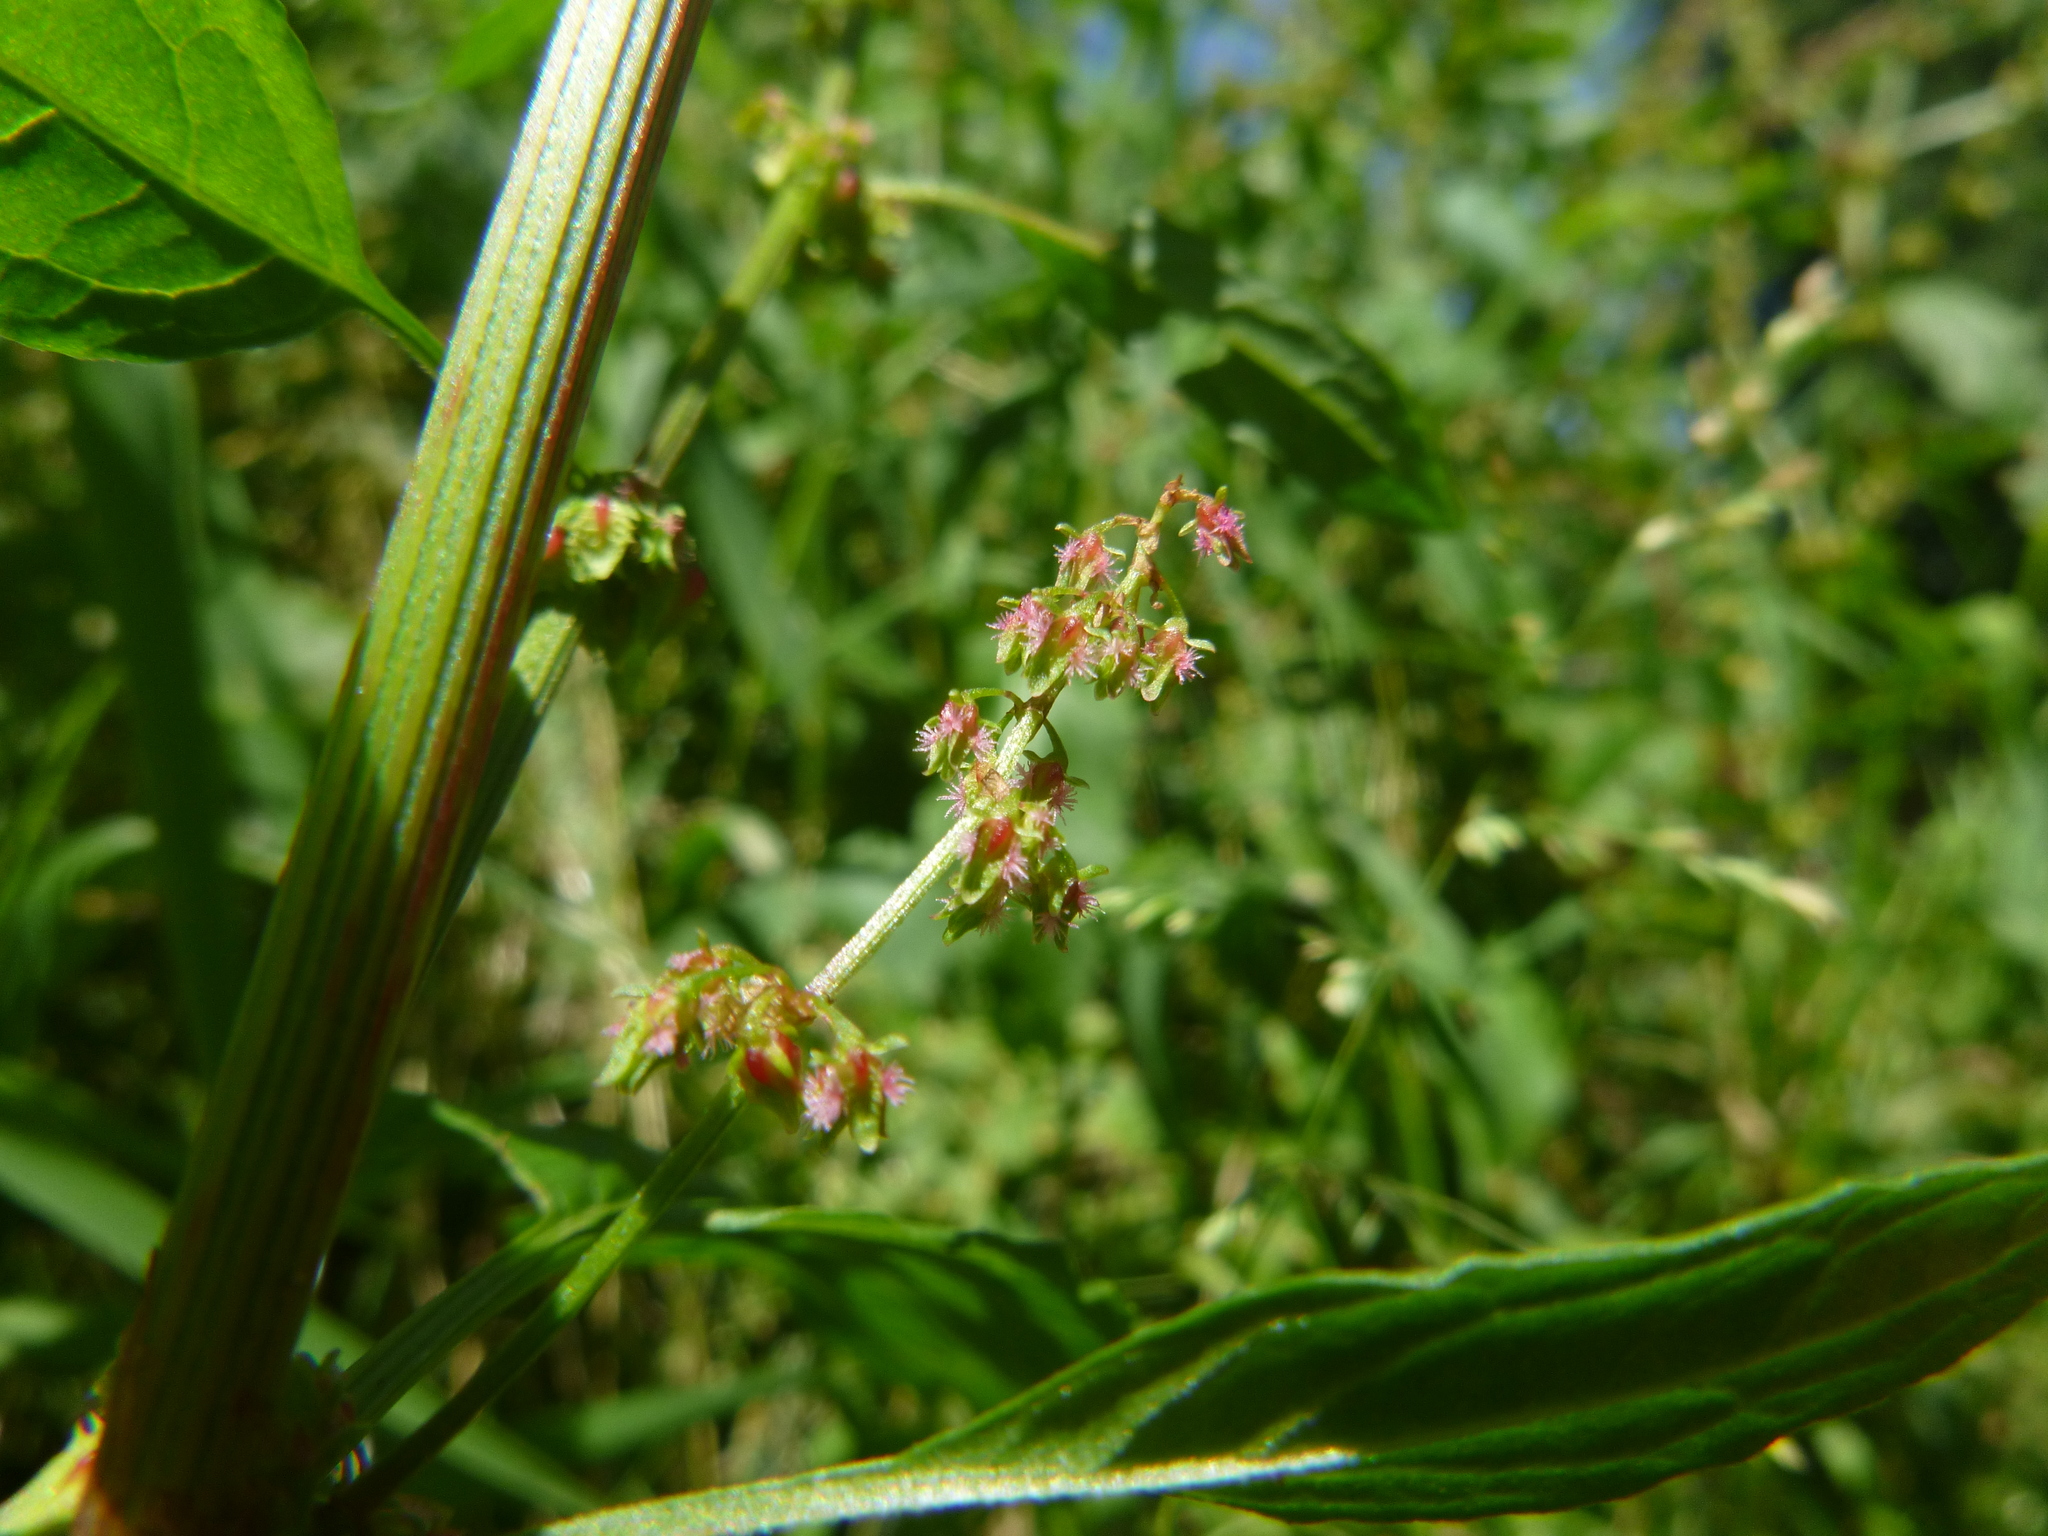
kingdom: Plantae
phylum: Tracheophyta
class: Magnoliopsida
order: Caryophyllales
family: Polygonaceae
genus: Rumex
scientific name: Rumex obtusifolius
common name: Bitter dock
